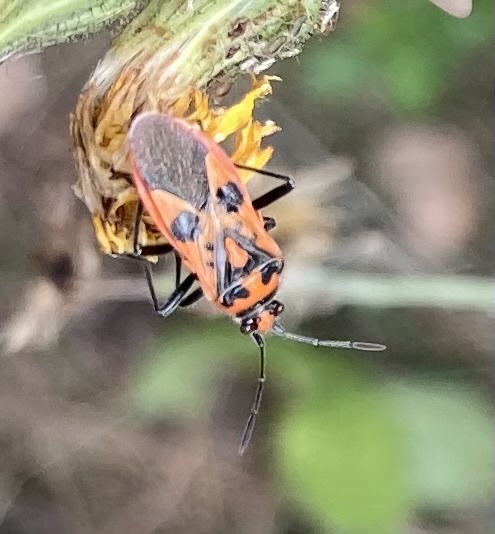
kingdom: Animalia
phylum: Arthropoda
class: Insecta
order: Hemiptera
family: Rhopalidae
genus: Corizus
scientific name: Corizus hyoscyami
